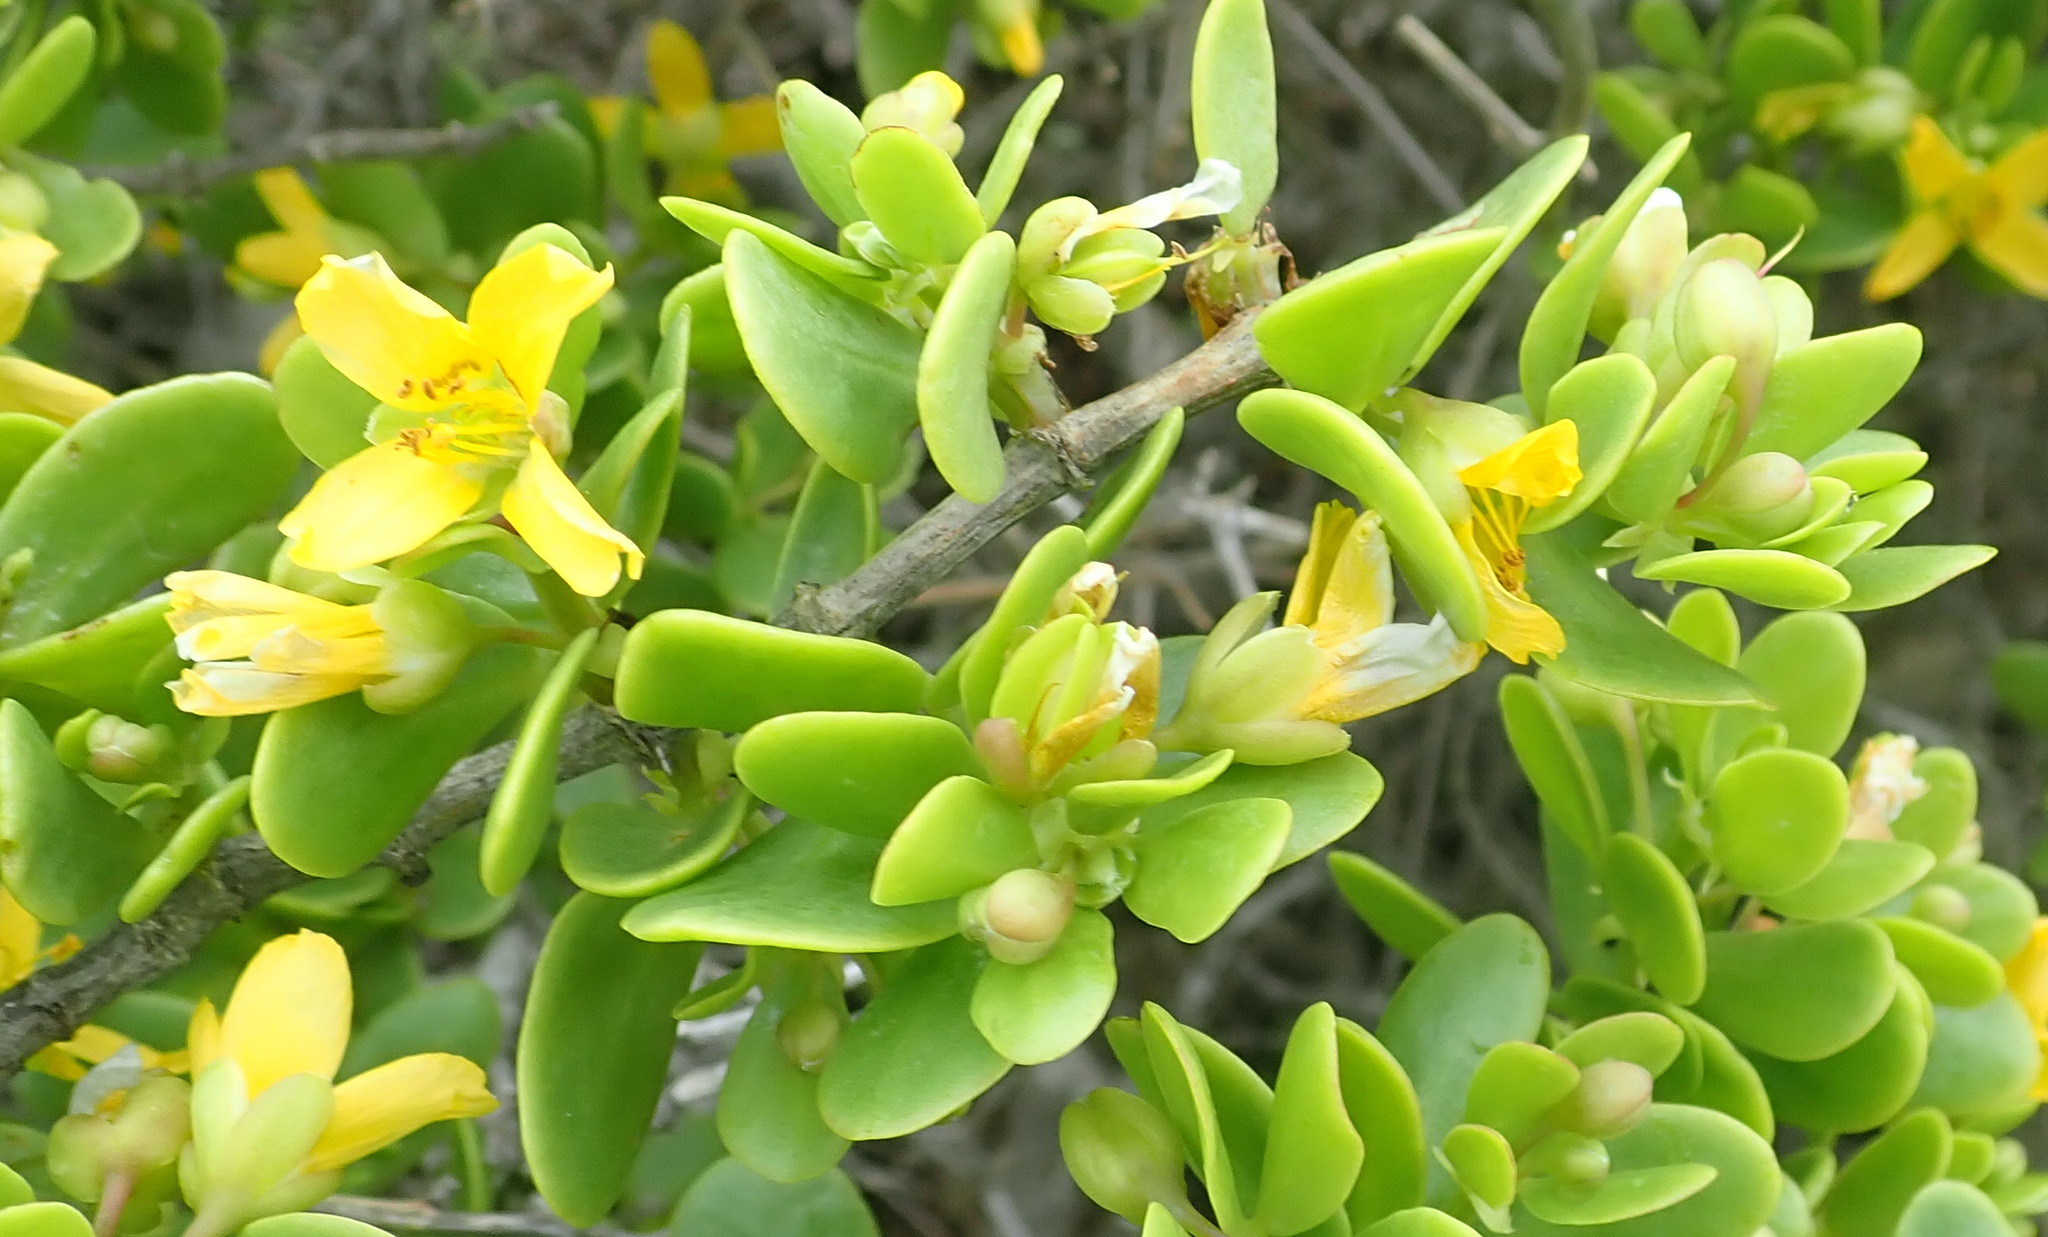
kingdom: Plantae
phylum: Tracheophyta
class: Magnoliopsida
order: Zygophyllales
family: Zygophyllaceae
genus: Roepera
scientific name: Roepera morgsana
